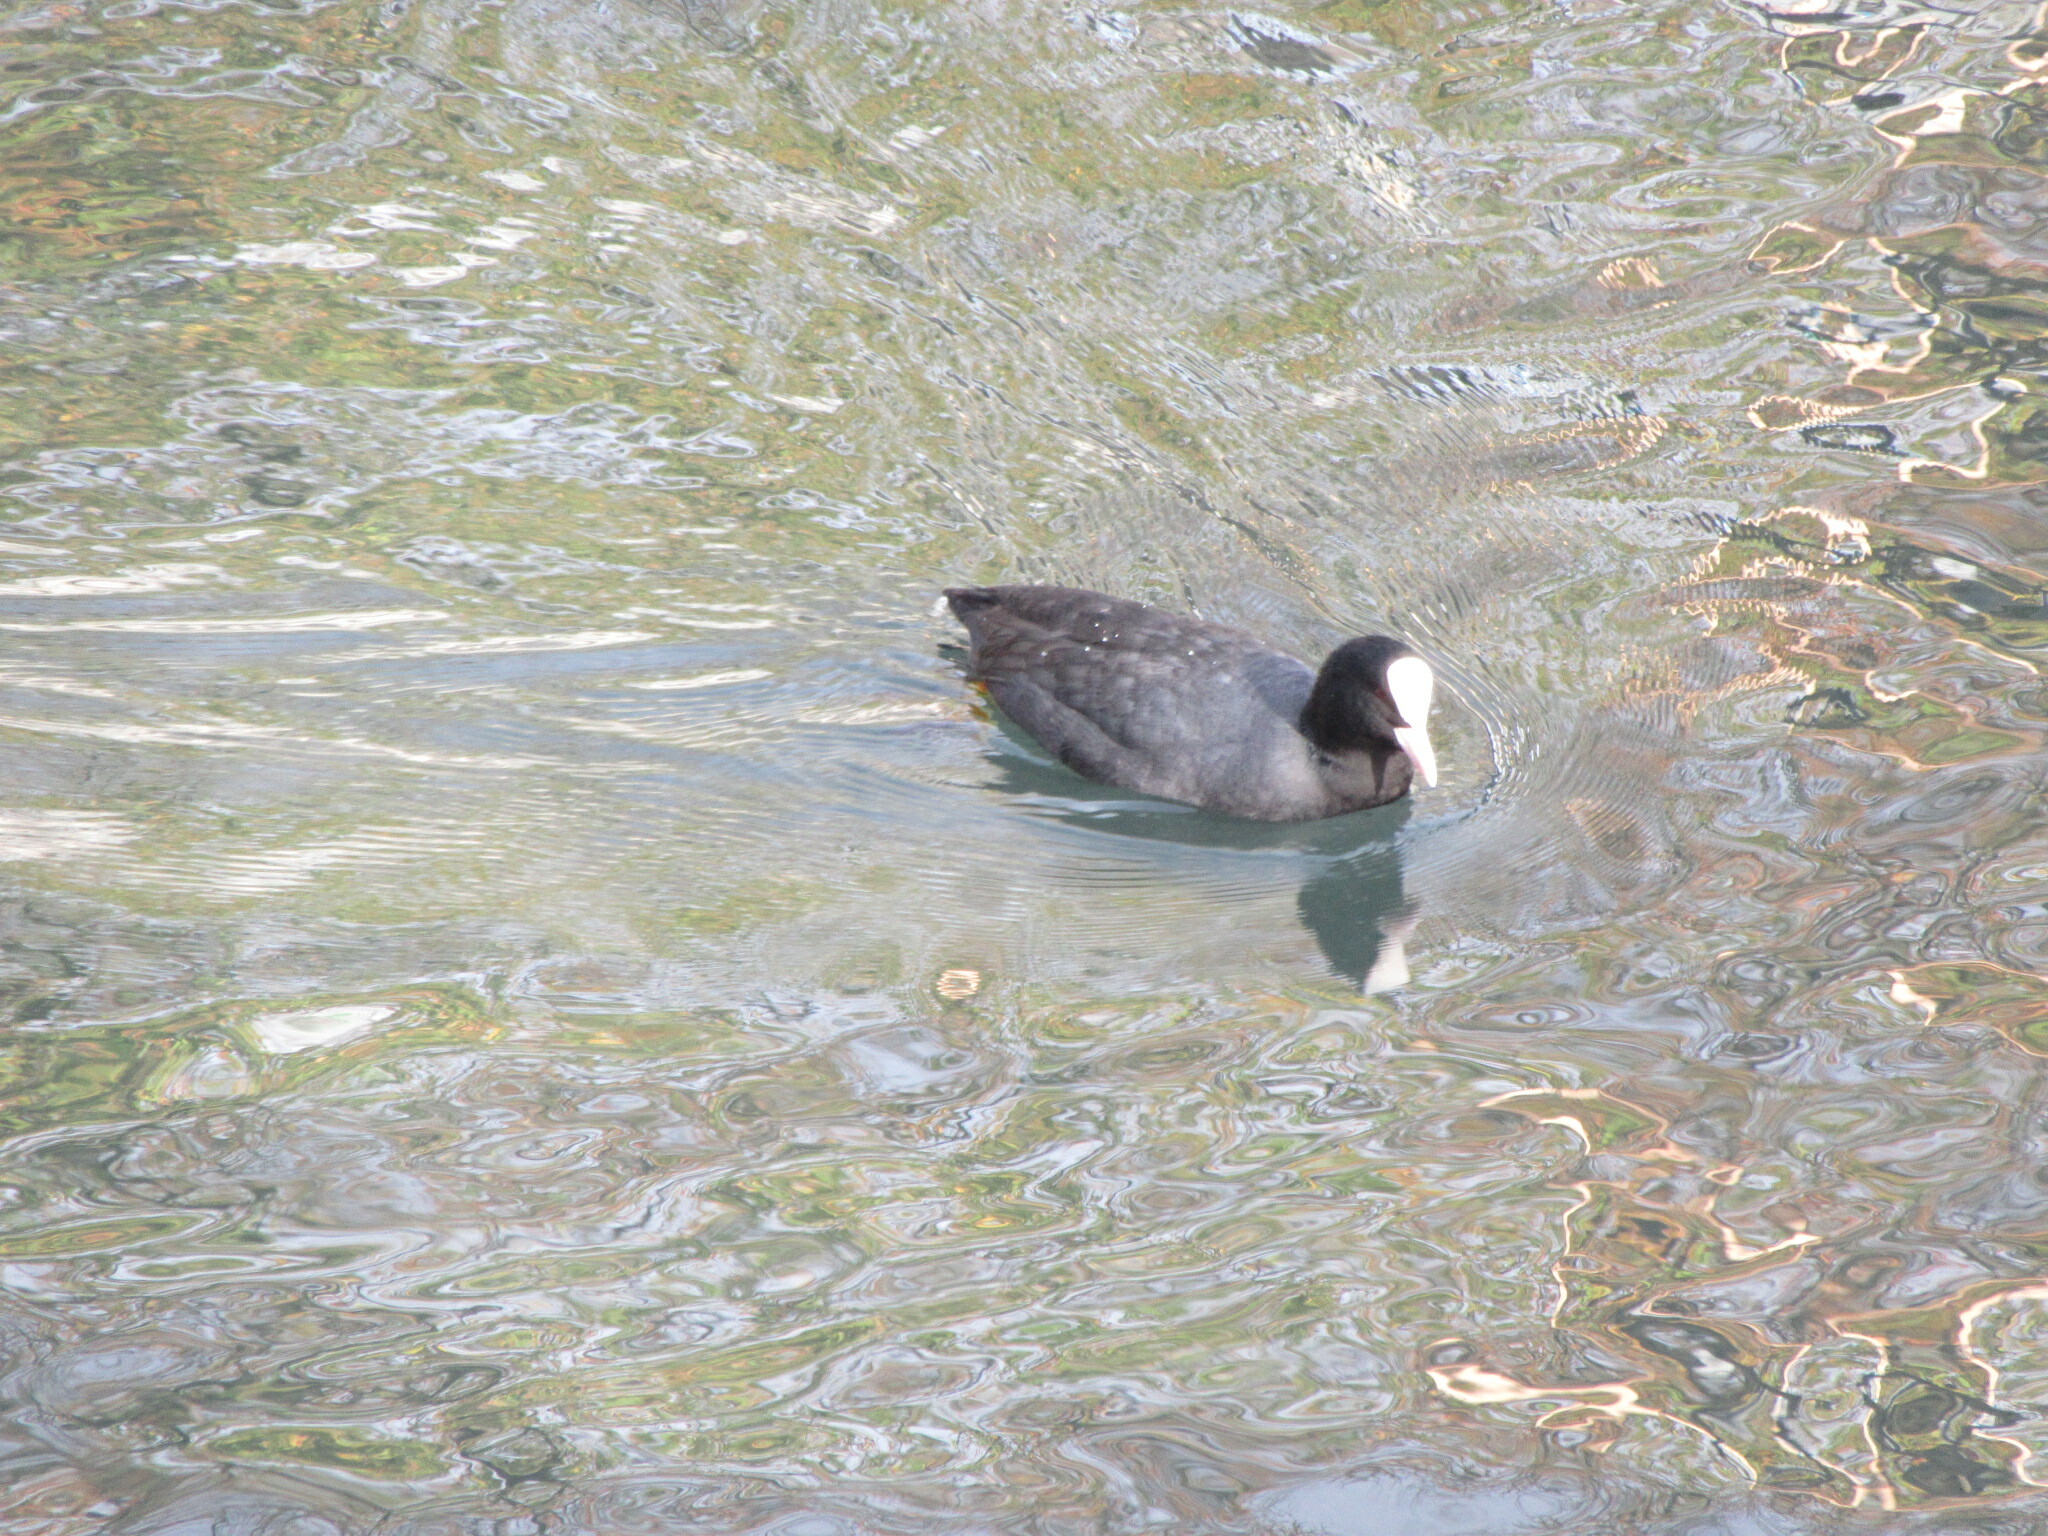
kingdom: Animalia
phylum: Chordata
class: Aves
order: Gruiformes
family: Rallidae
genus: Fulica
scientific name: Fulica atra
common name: Eurasian coot
